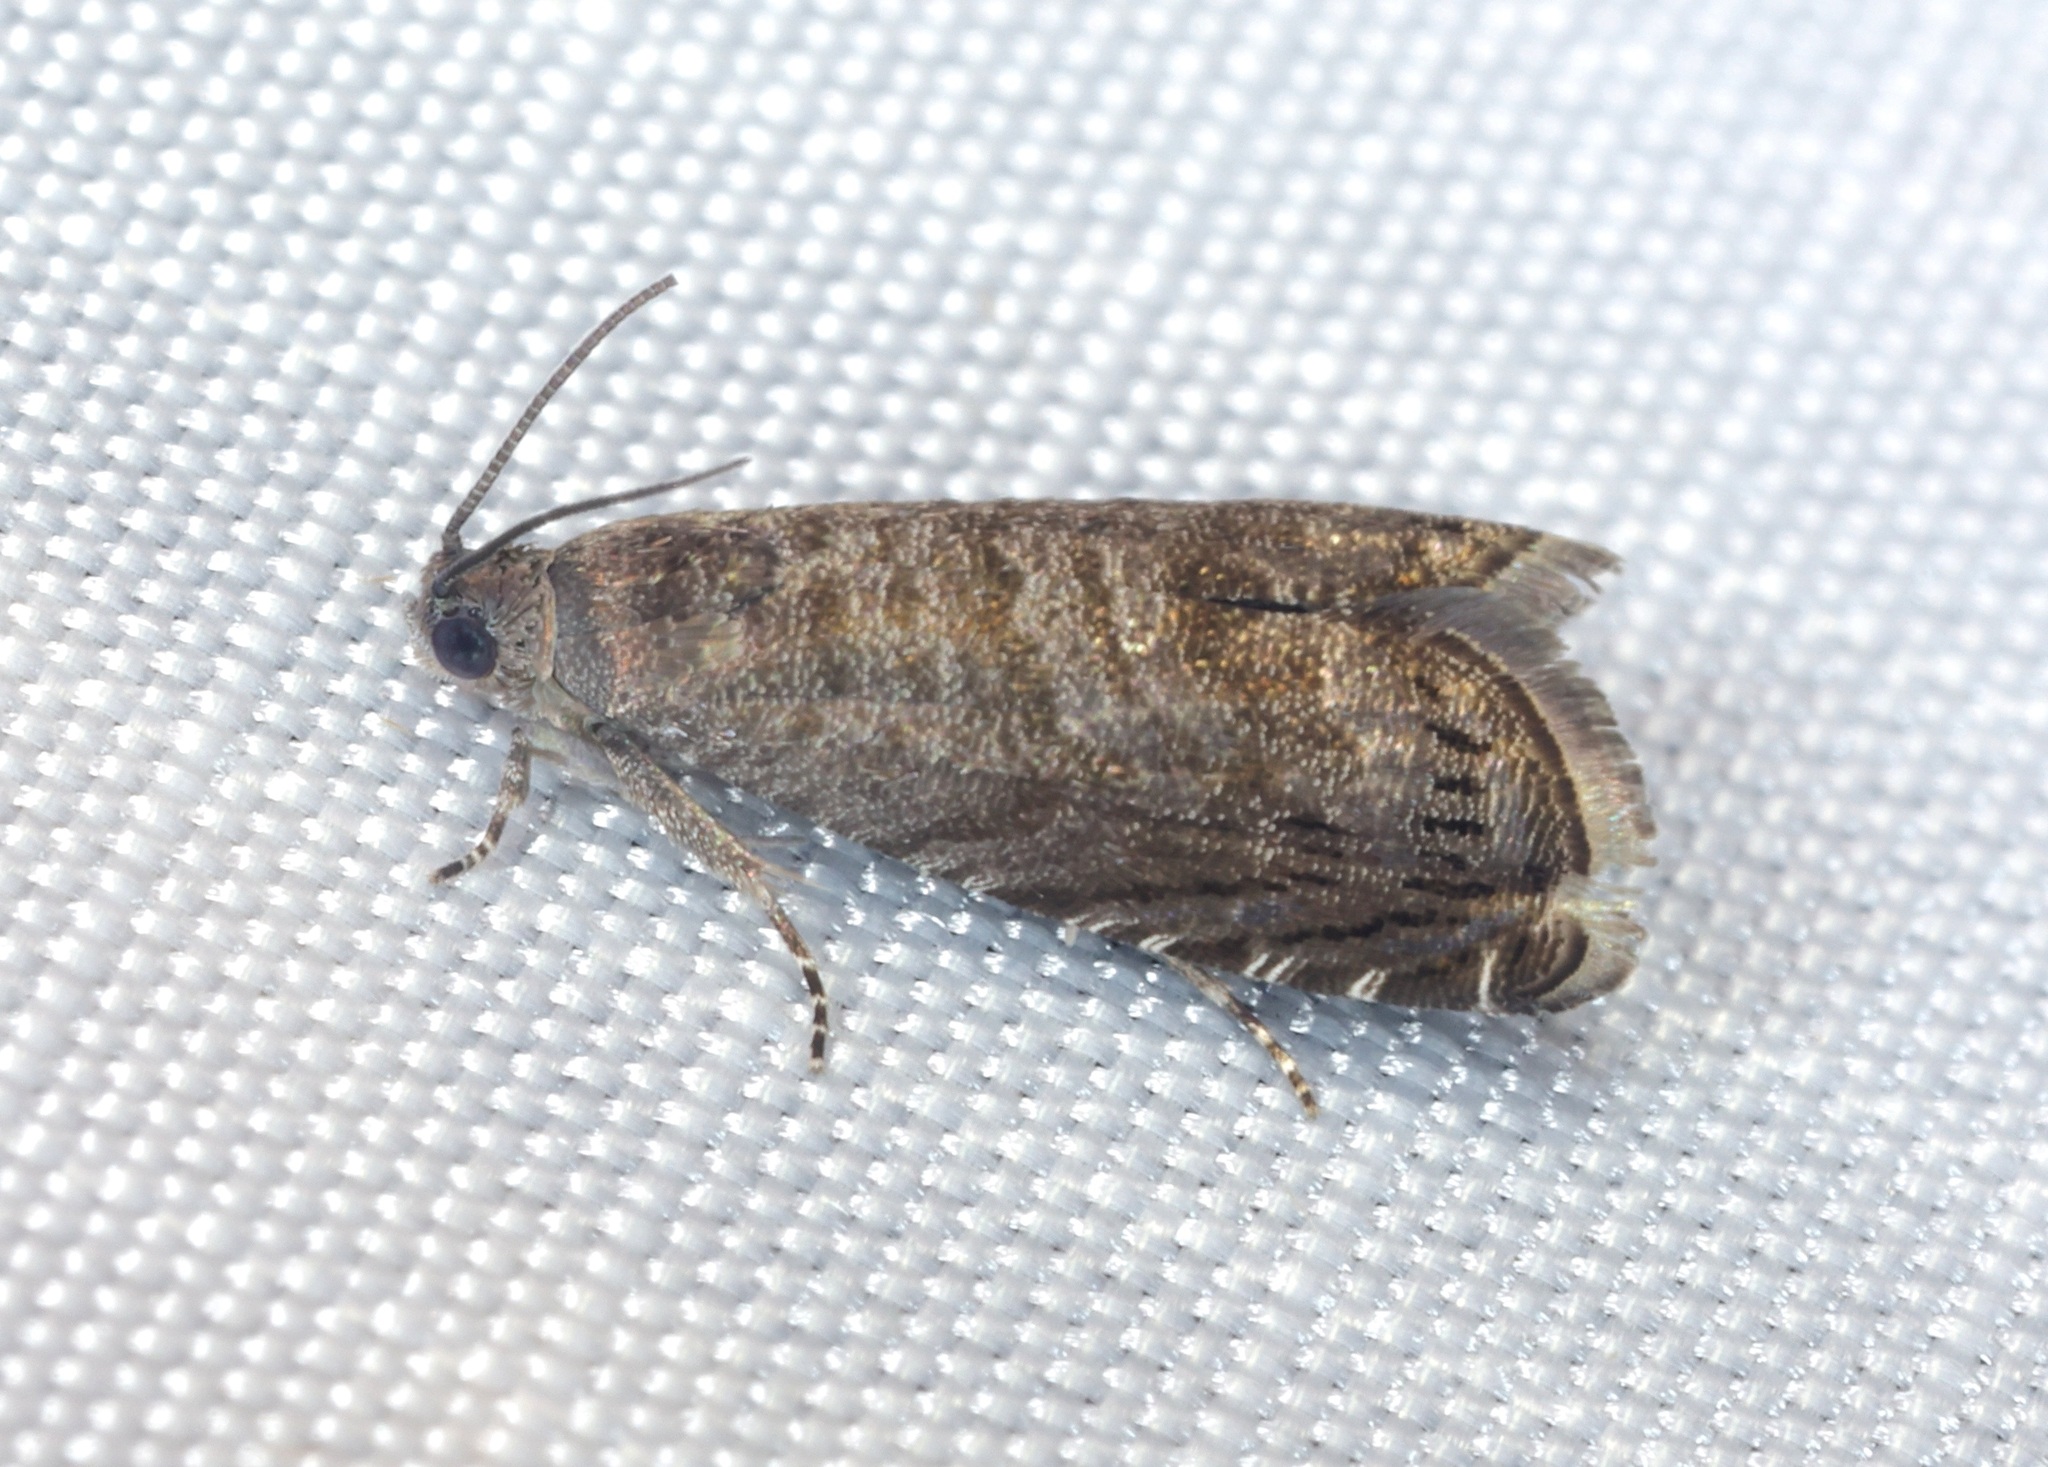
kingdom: Animalia
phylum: Arthropoda
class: Insecta
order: Lepidoptera
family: Tortricidae
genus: Grapholitini
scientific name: Grapholitini
